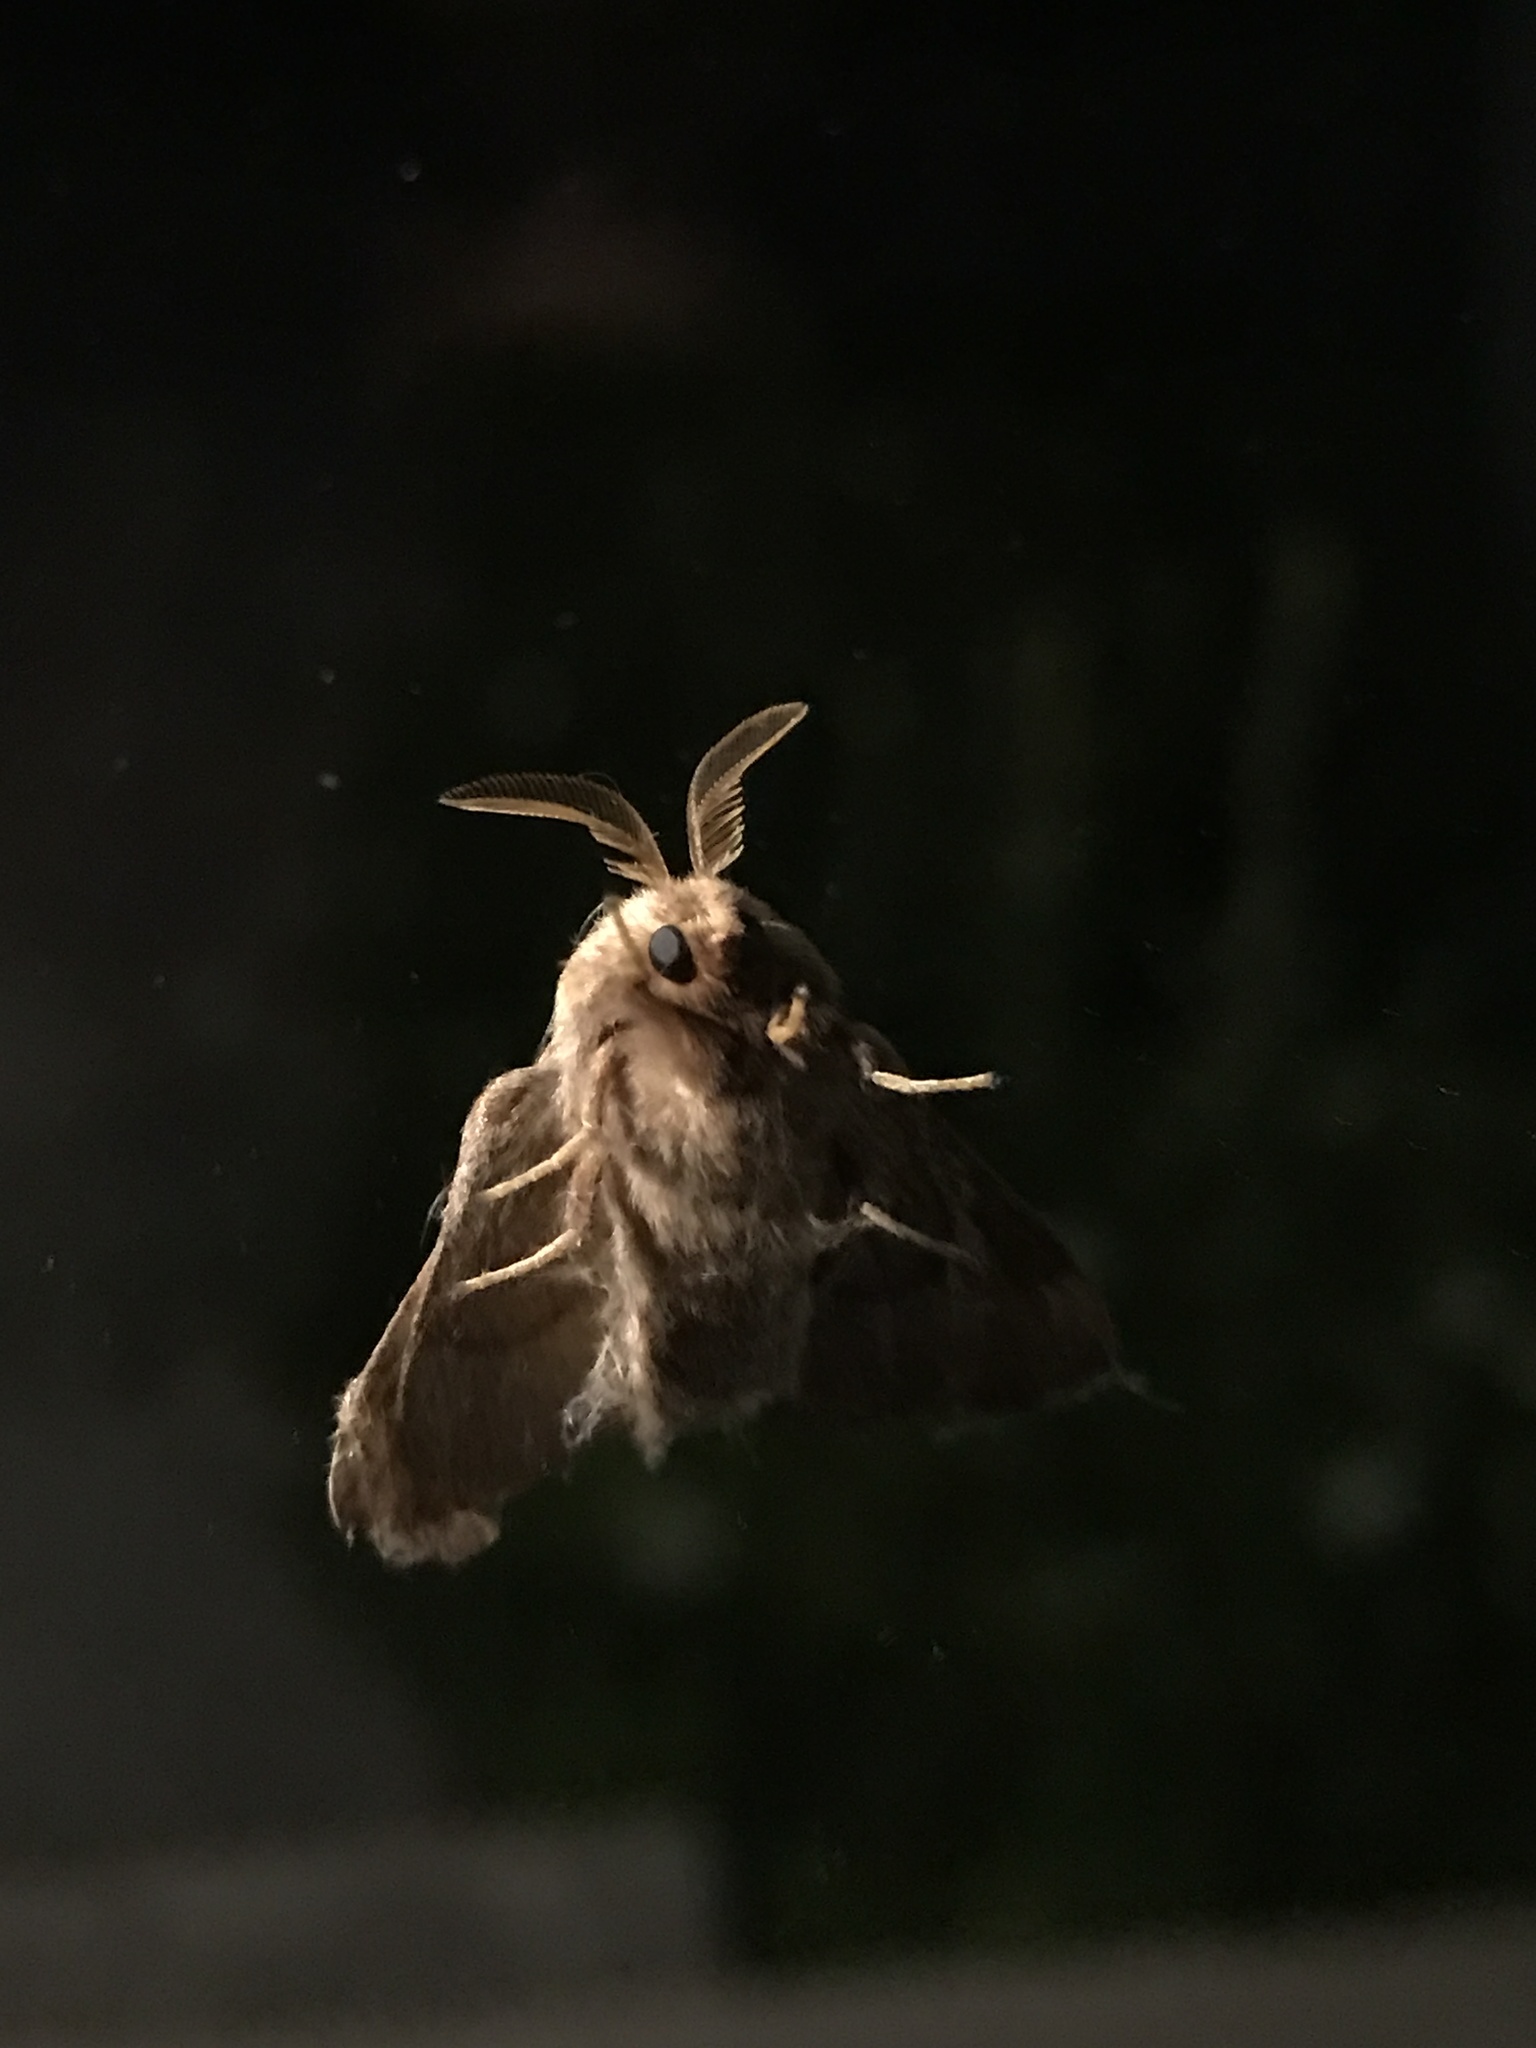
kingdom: Animalia
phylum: Arthropoda
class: Insecta
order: Lepidoptera
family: Lasiocampidae
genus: Malacosoma
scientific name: Malacosoma disstria
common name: Forest tent caterpillar
